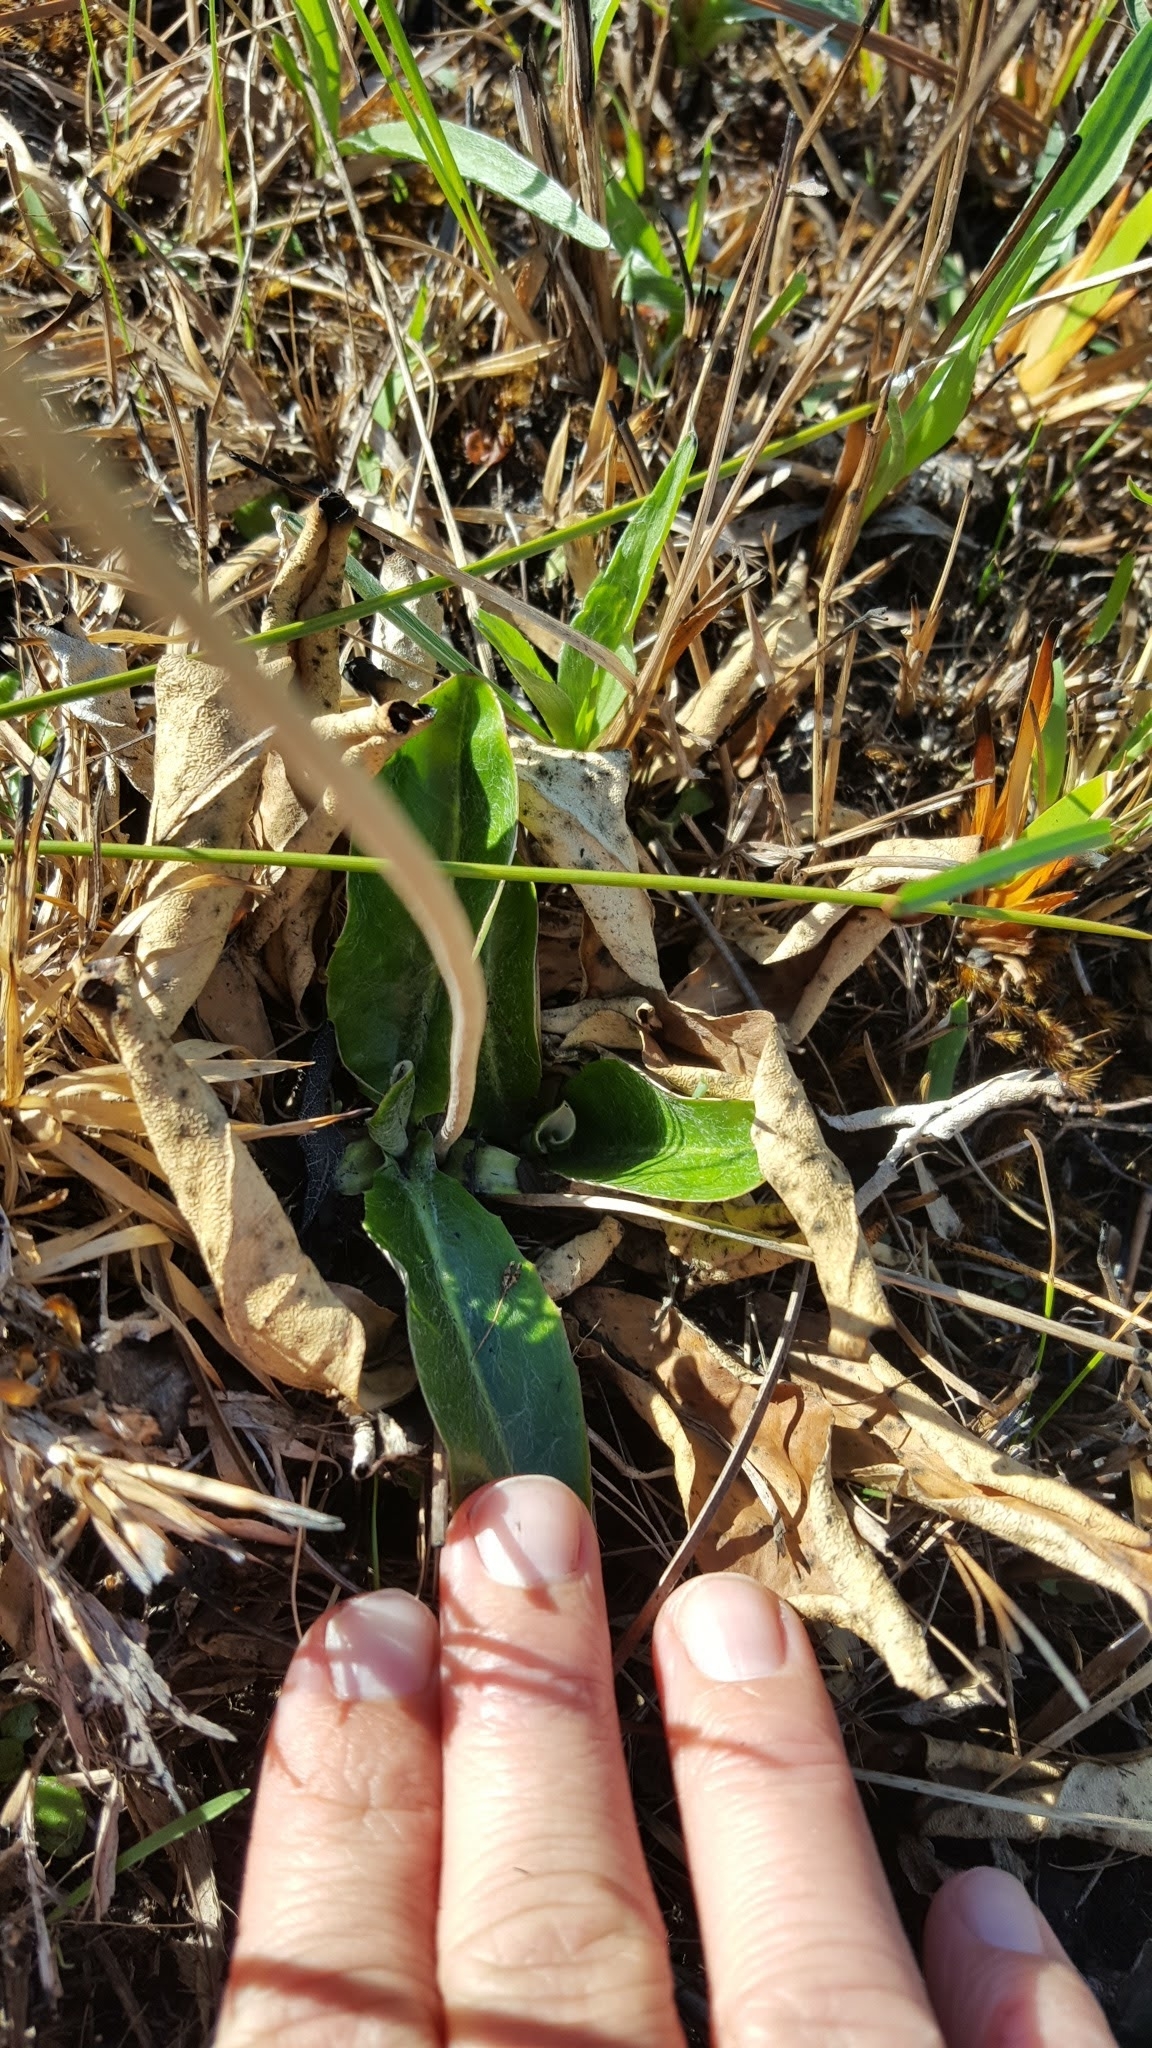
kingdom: Plantae
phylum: Tracheophyta
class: Magnoliopsida
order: Asterales
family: Asteraceae
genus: Chaptalia
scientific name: Chaptalia tomentosa
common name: Woolly sunbonnet
